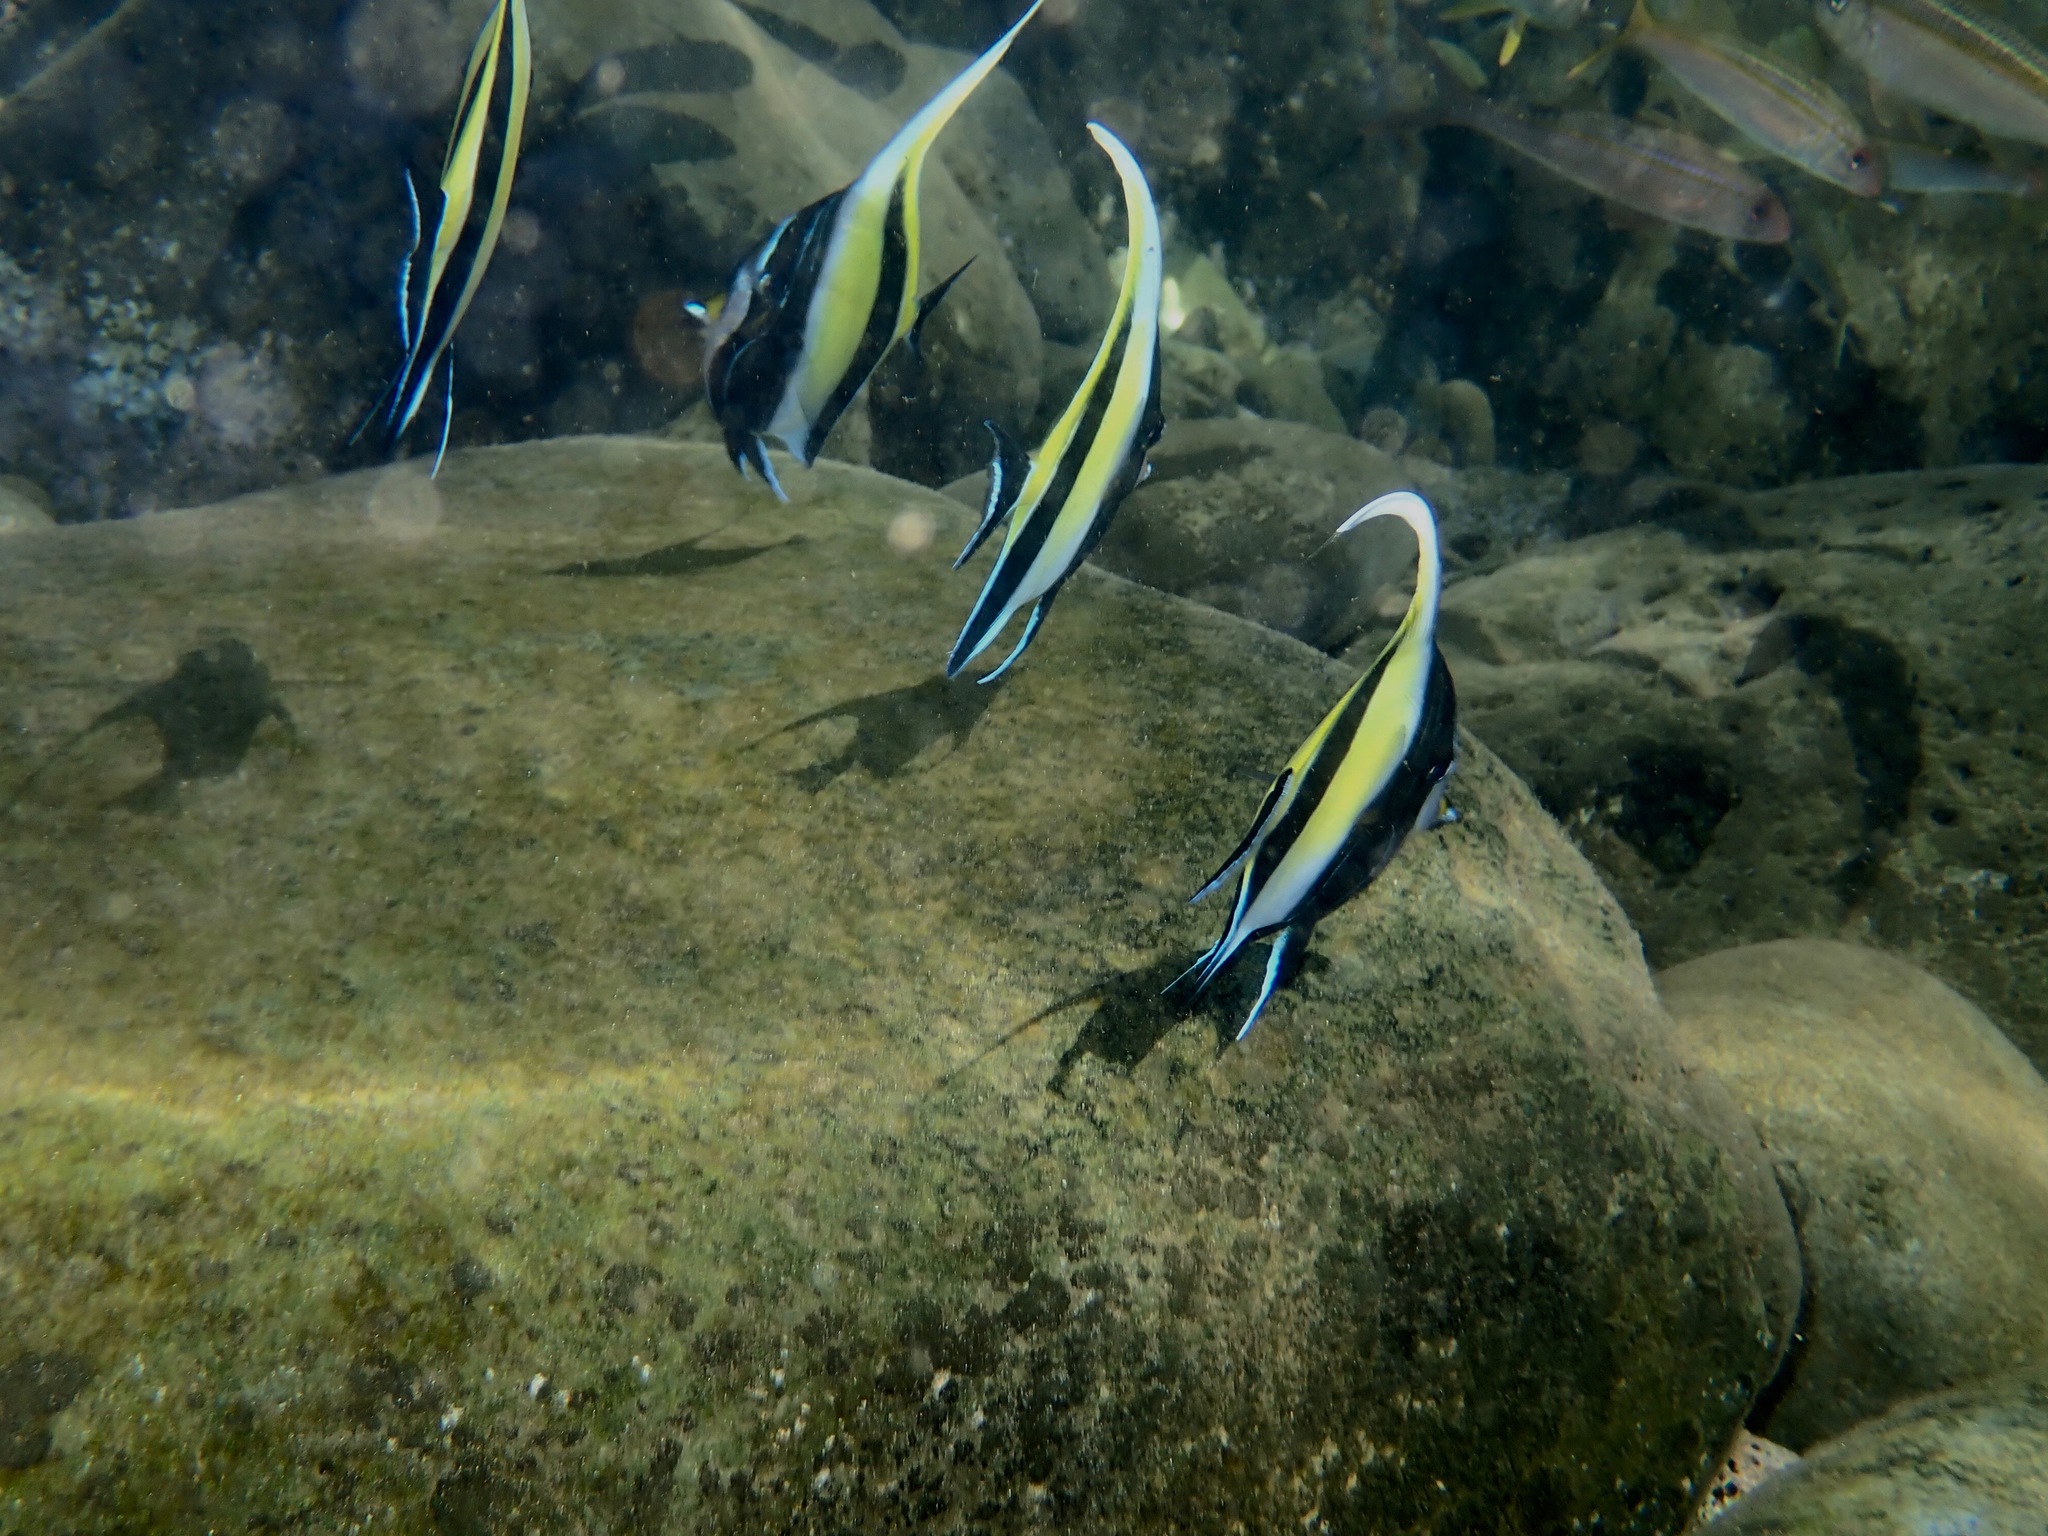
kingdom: Animalia
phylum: Chordata
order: Perciformes
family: Zanclidae
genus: Zanclus
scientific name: Zanclus cornutus
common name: Moorish idol
